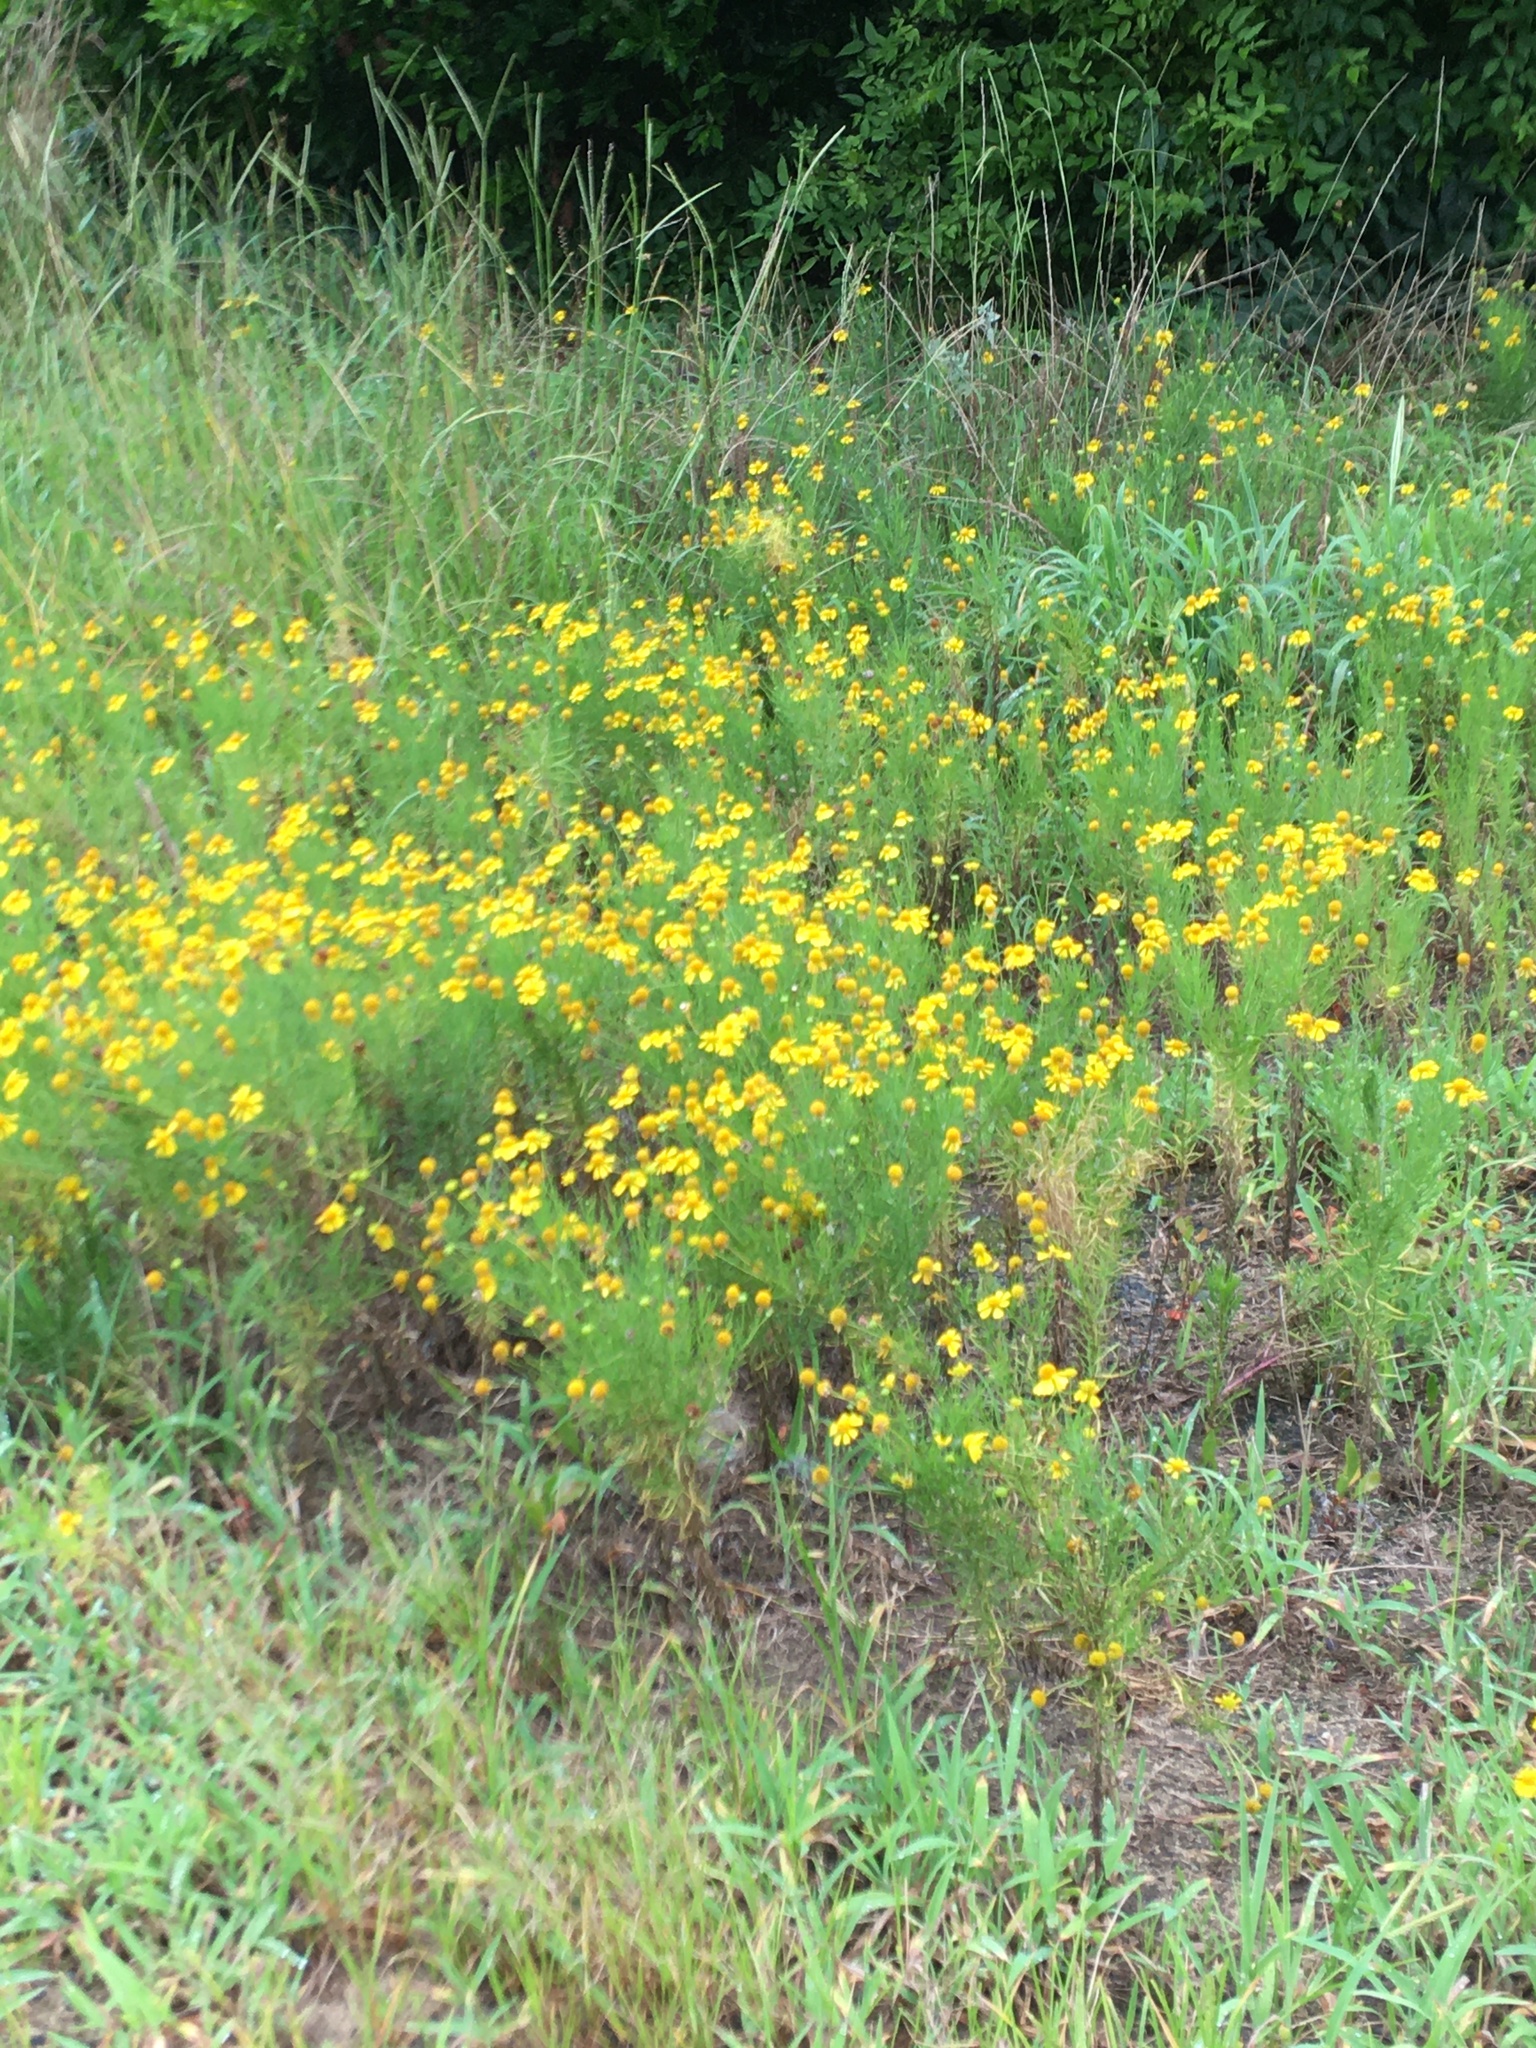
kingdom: Plantae
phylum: Tracheophyta
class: Magnoliopsida
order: Asterales
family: Asteraceae
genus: Helenium
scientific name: Helenium amarum
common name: Bitter sneezeweed
